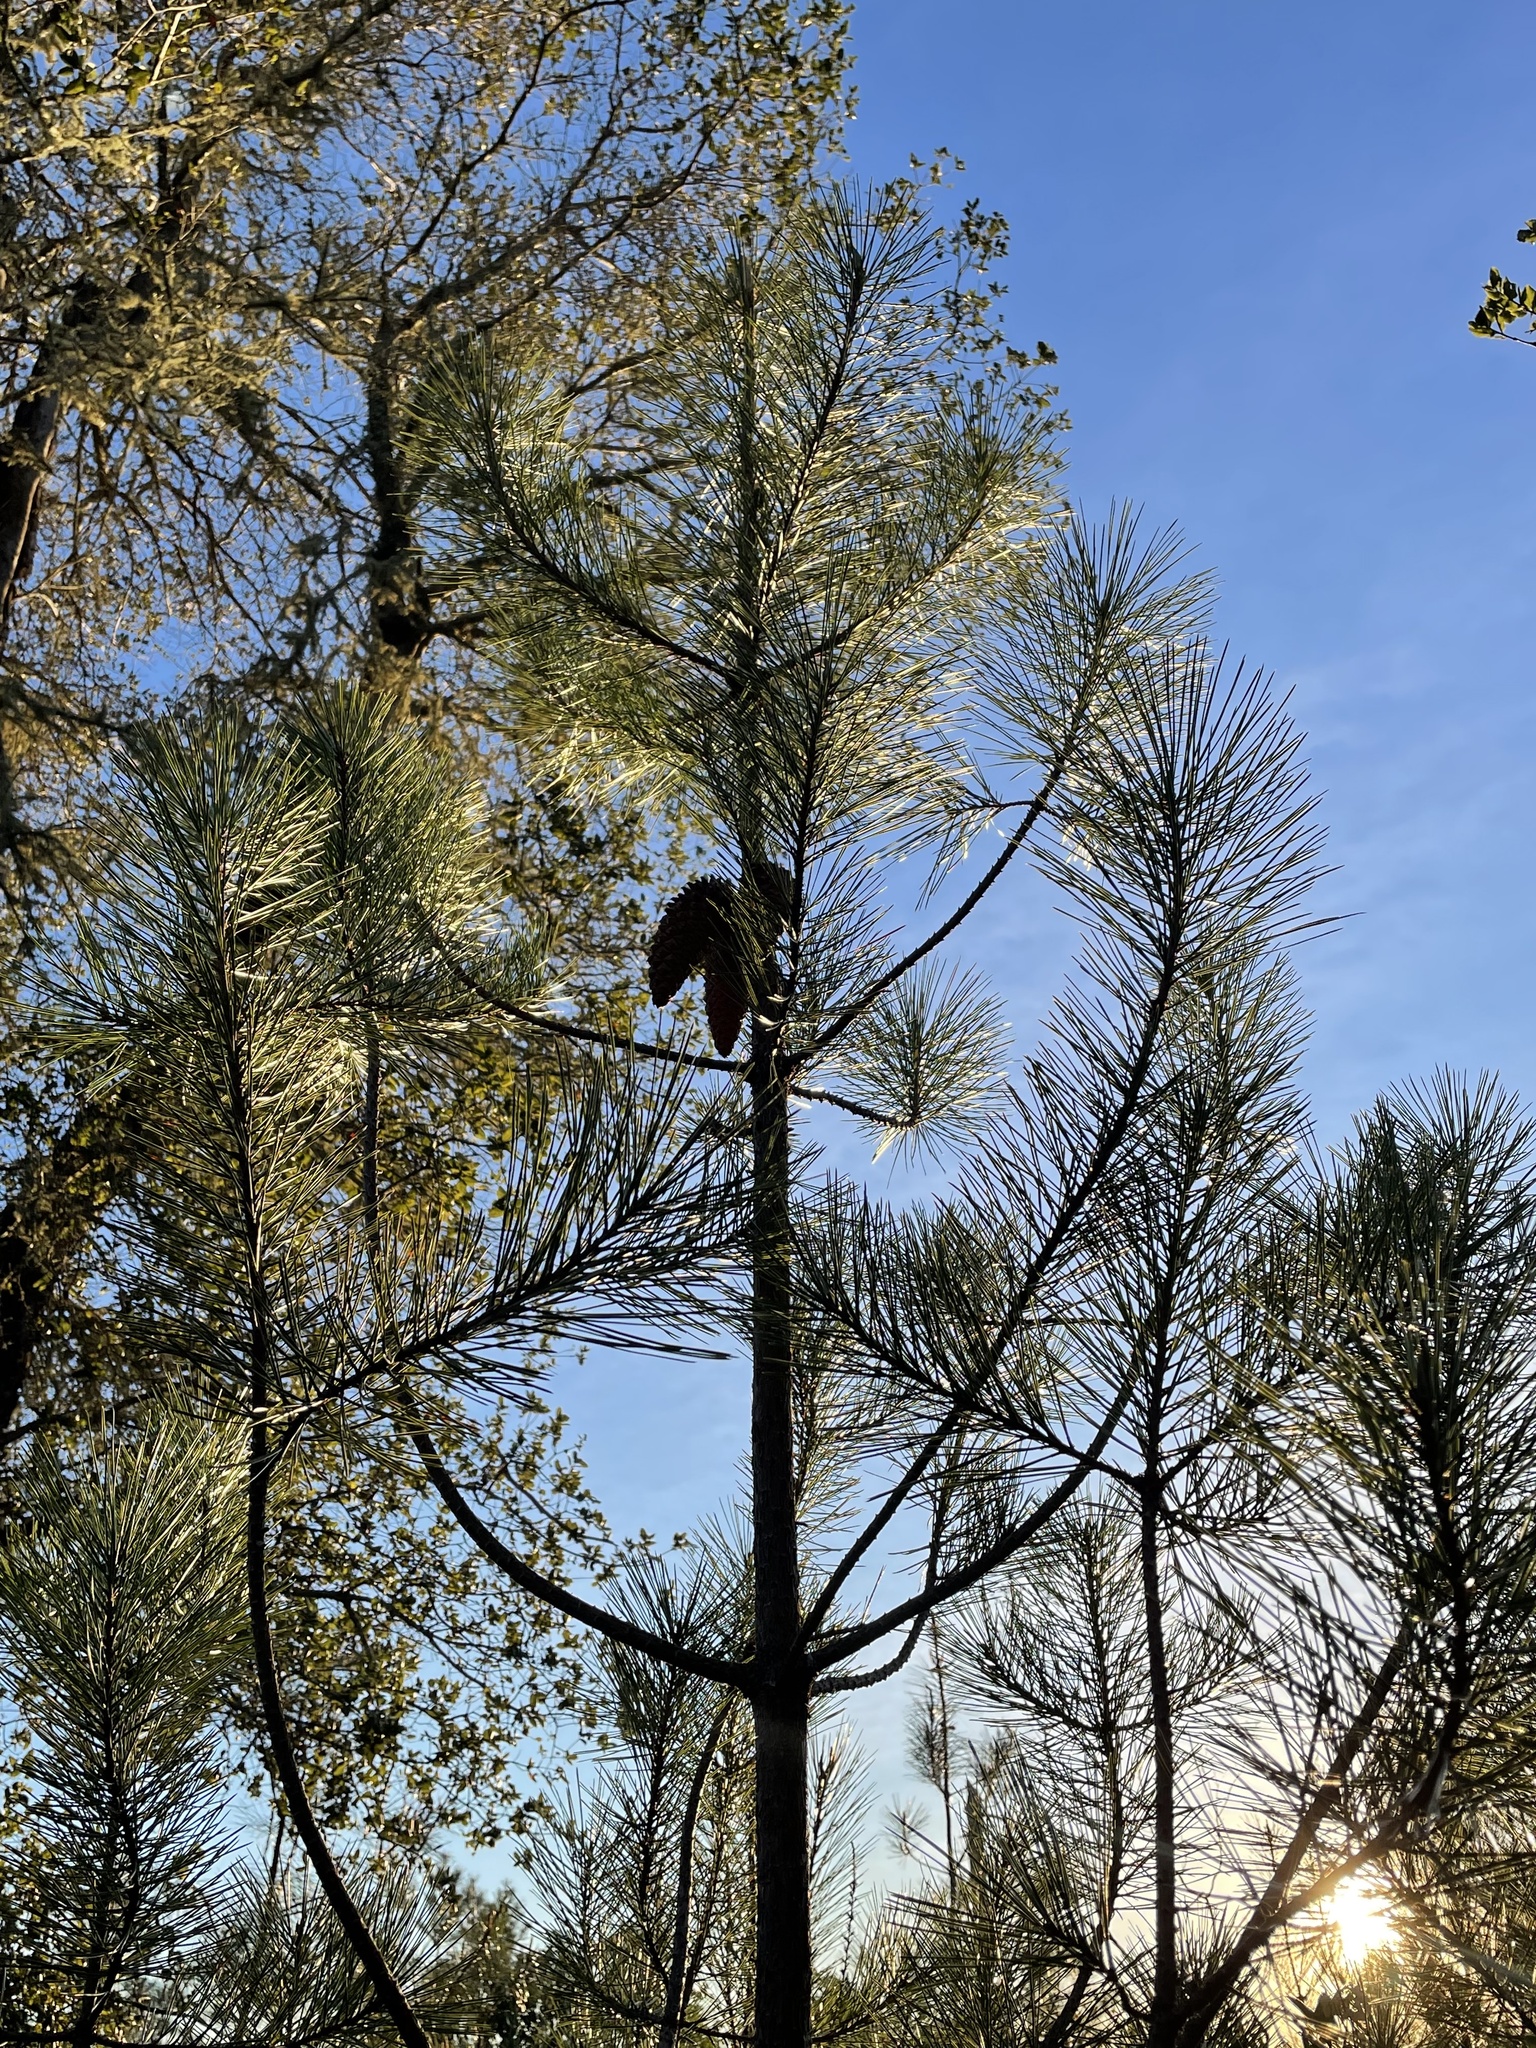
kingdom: Plantae
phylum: Tracheophyta
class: Pinopsida
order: Pinales
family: Pinaceae
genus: Pinus
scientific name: Pinus attenuata
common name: Knobcone pine
